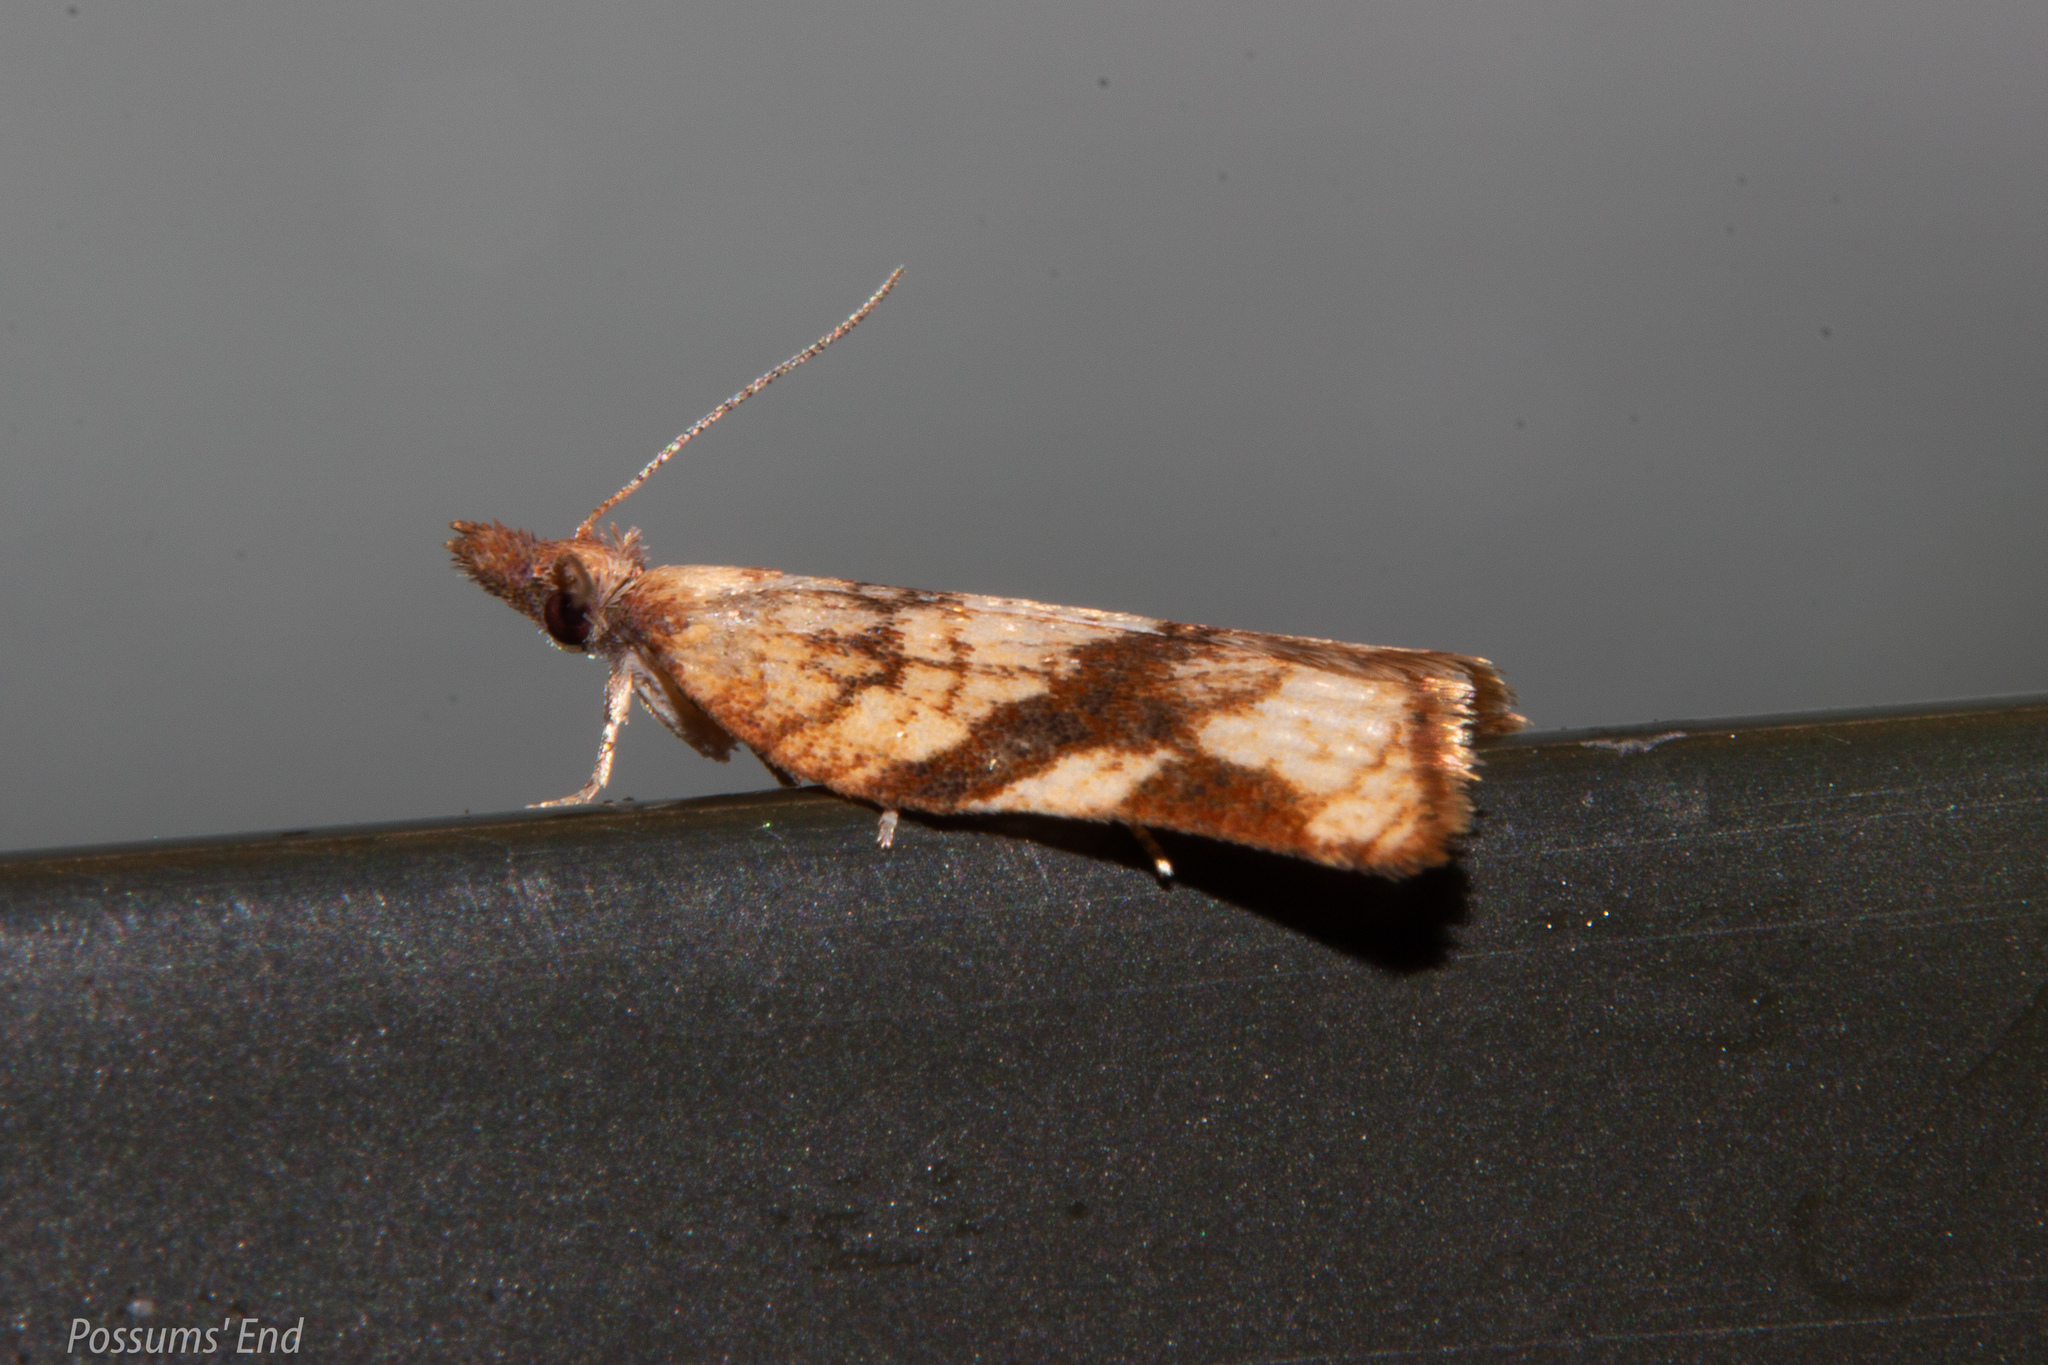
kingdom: Animalia
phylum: Arthropoda
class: Insecta
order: Lepidoptera
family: Tortricidae
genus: Catamacta
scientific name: Catamacta gavisana
